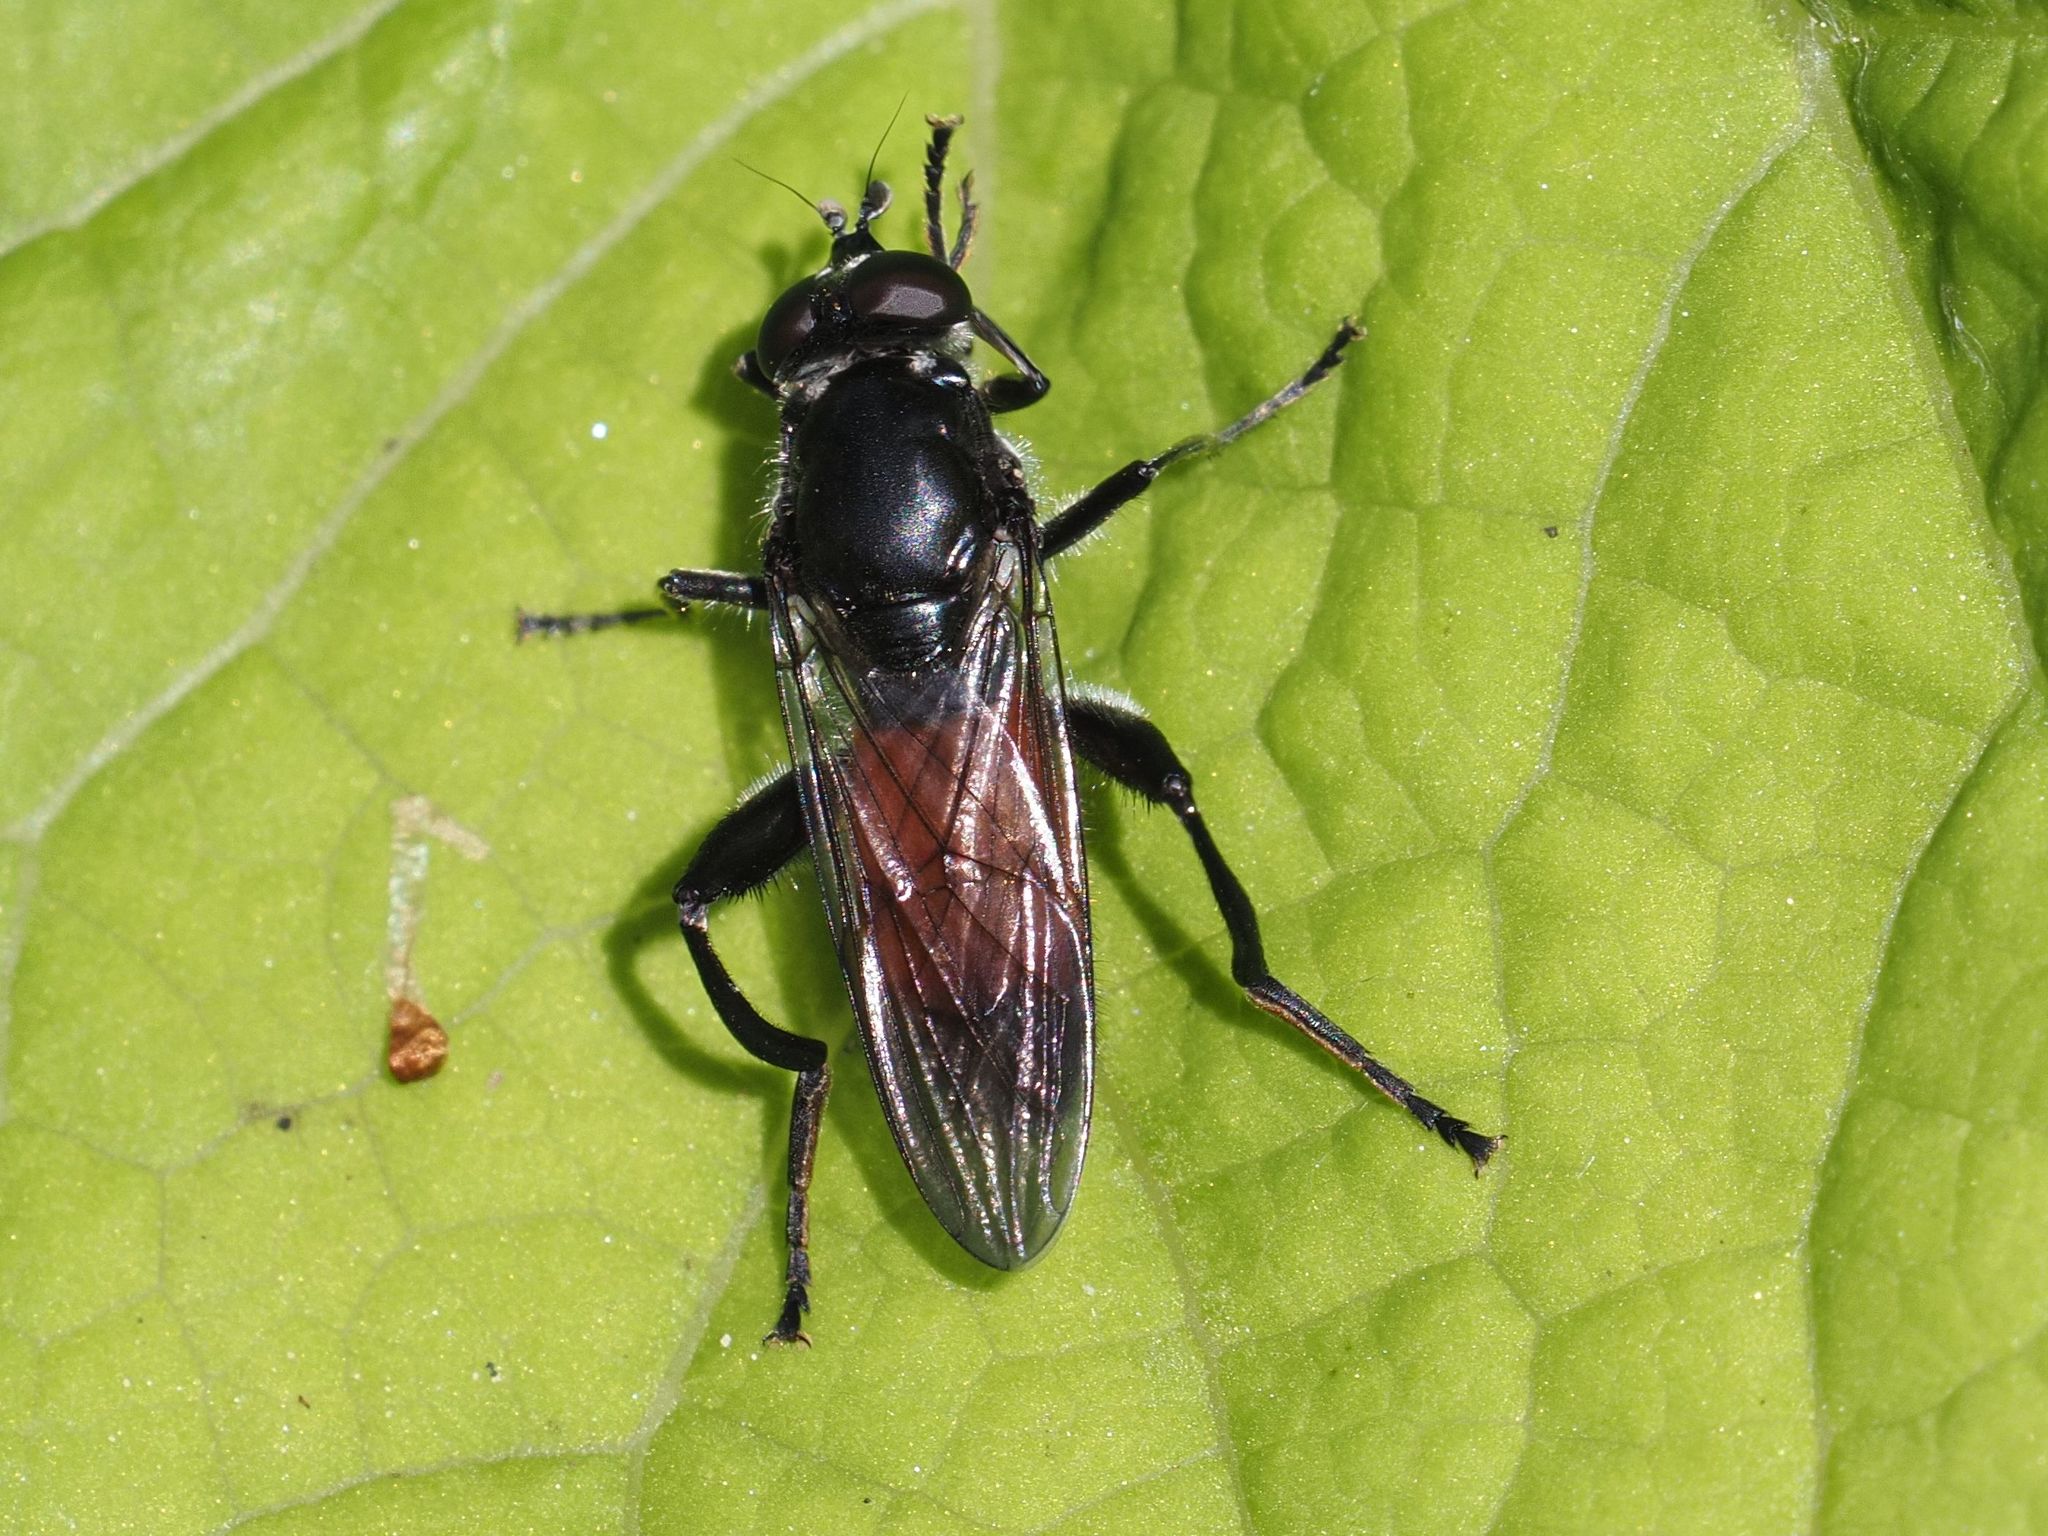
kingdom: Animalia
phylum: Arthropoda
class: Insecta
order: Diptera
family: Syrphidae
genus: Brachypalpoides
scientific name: Brachypalpoides lenta
